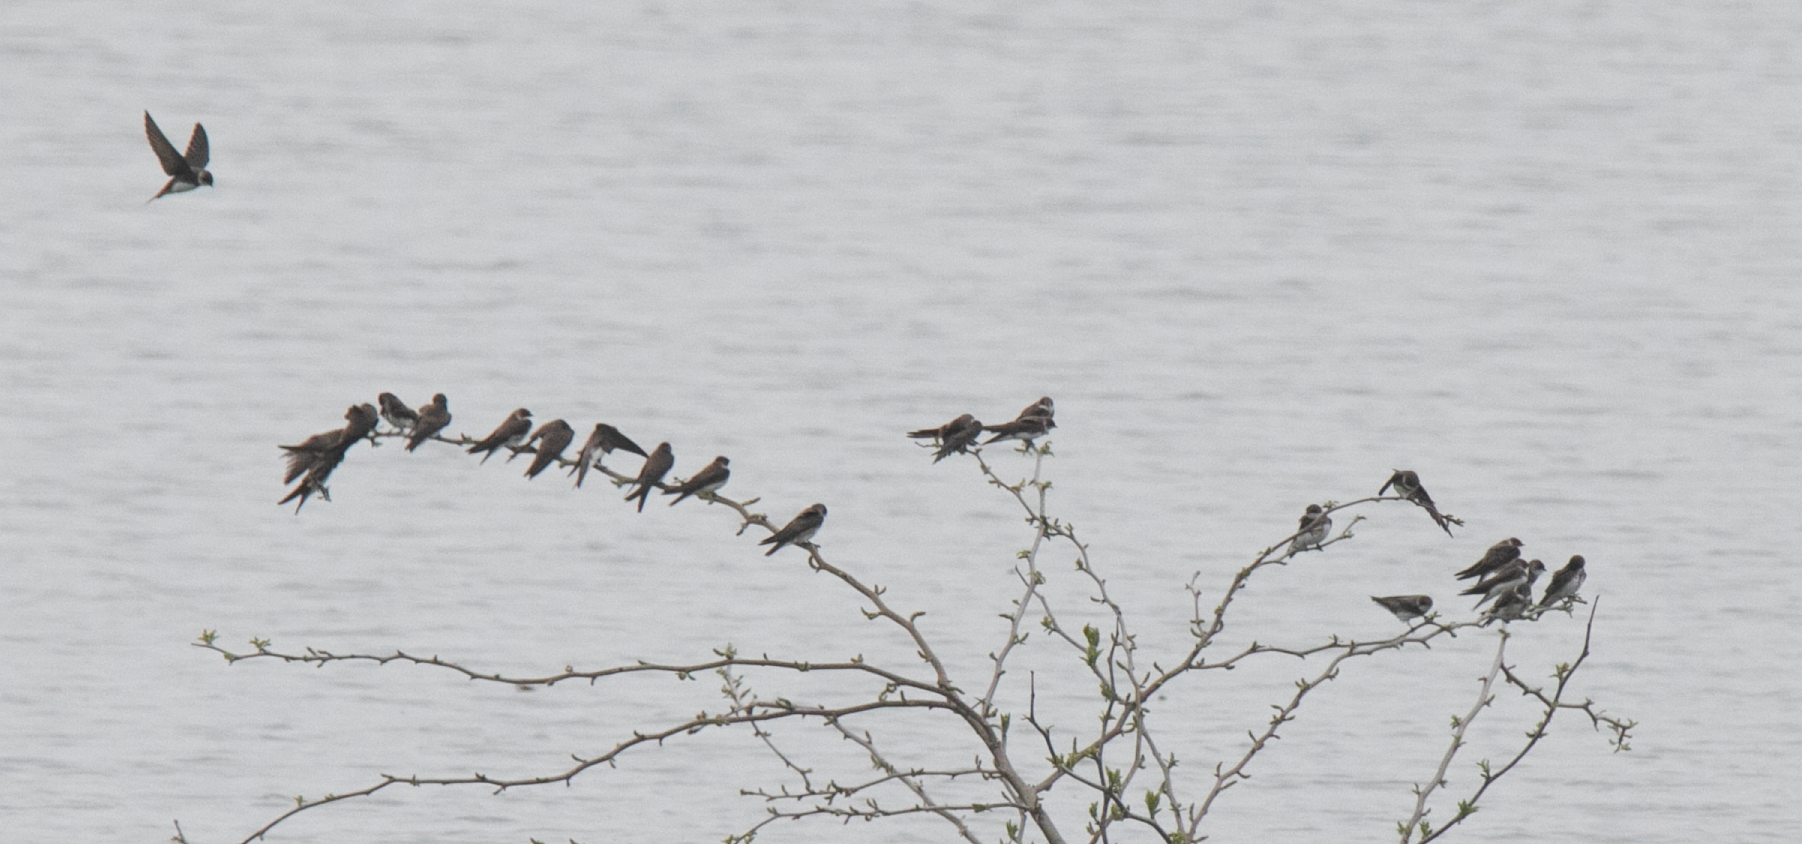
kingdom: Animalia
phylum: Chordata
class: Aves
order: Passeriformes
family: Hirundinidae
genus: Riparia
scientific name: Riparia riparia
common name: Sand martin
